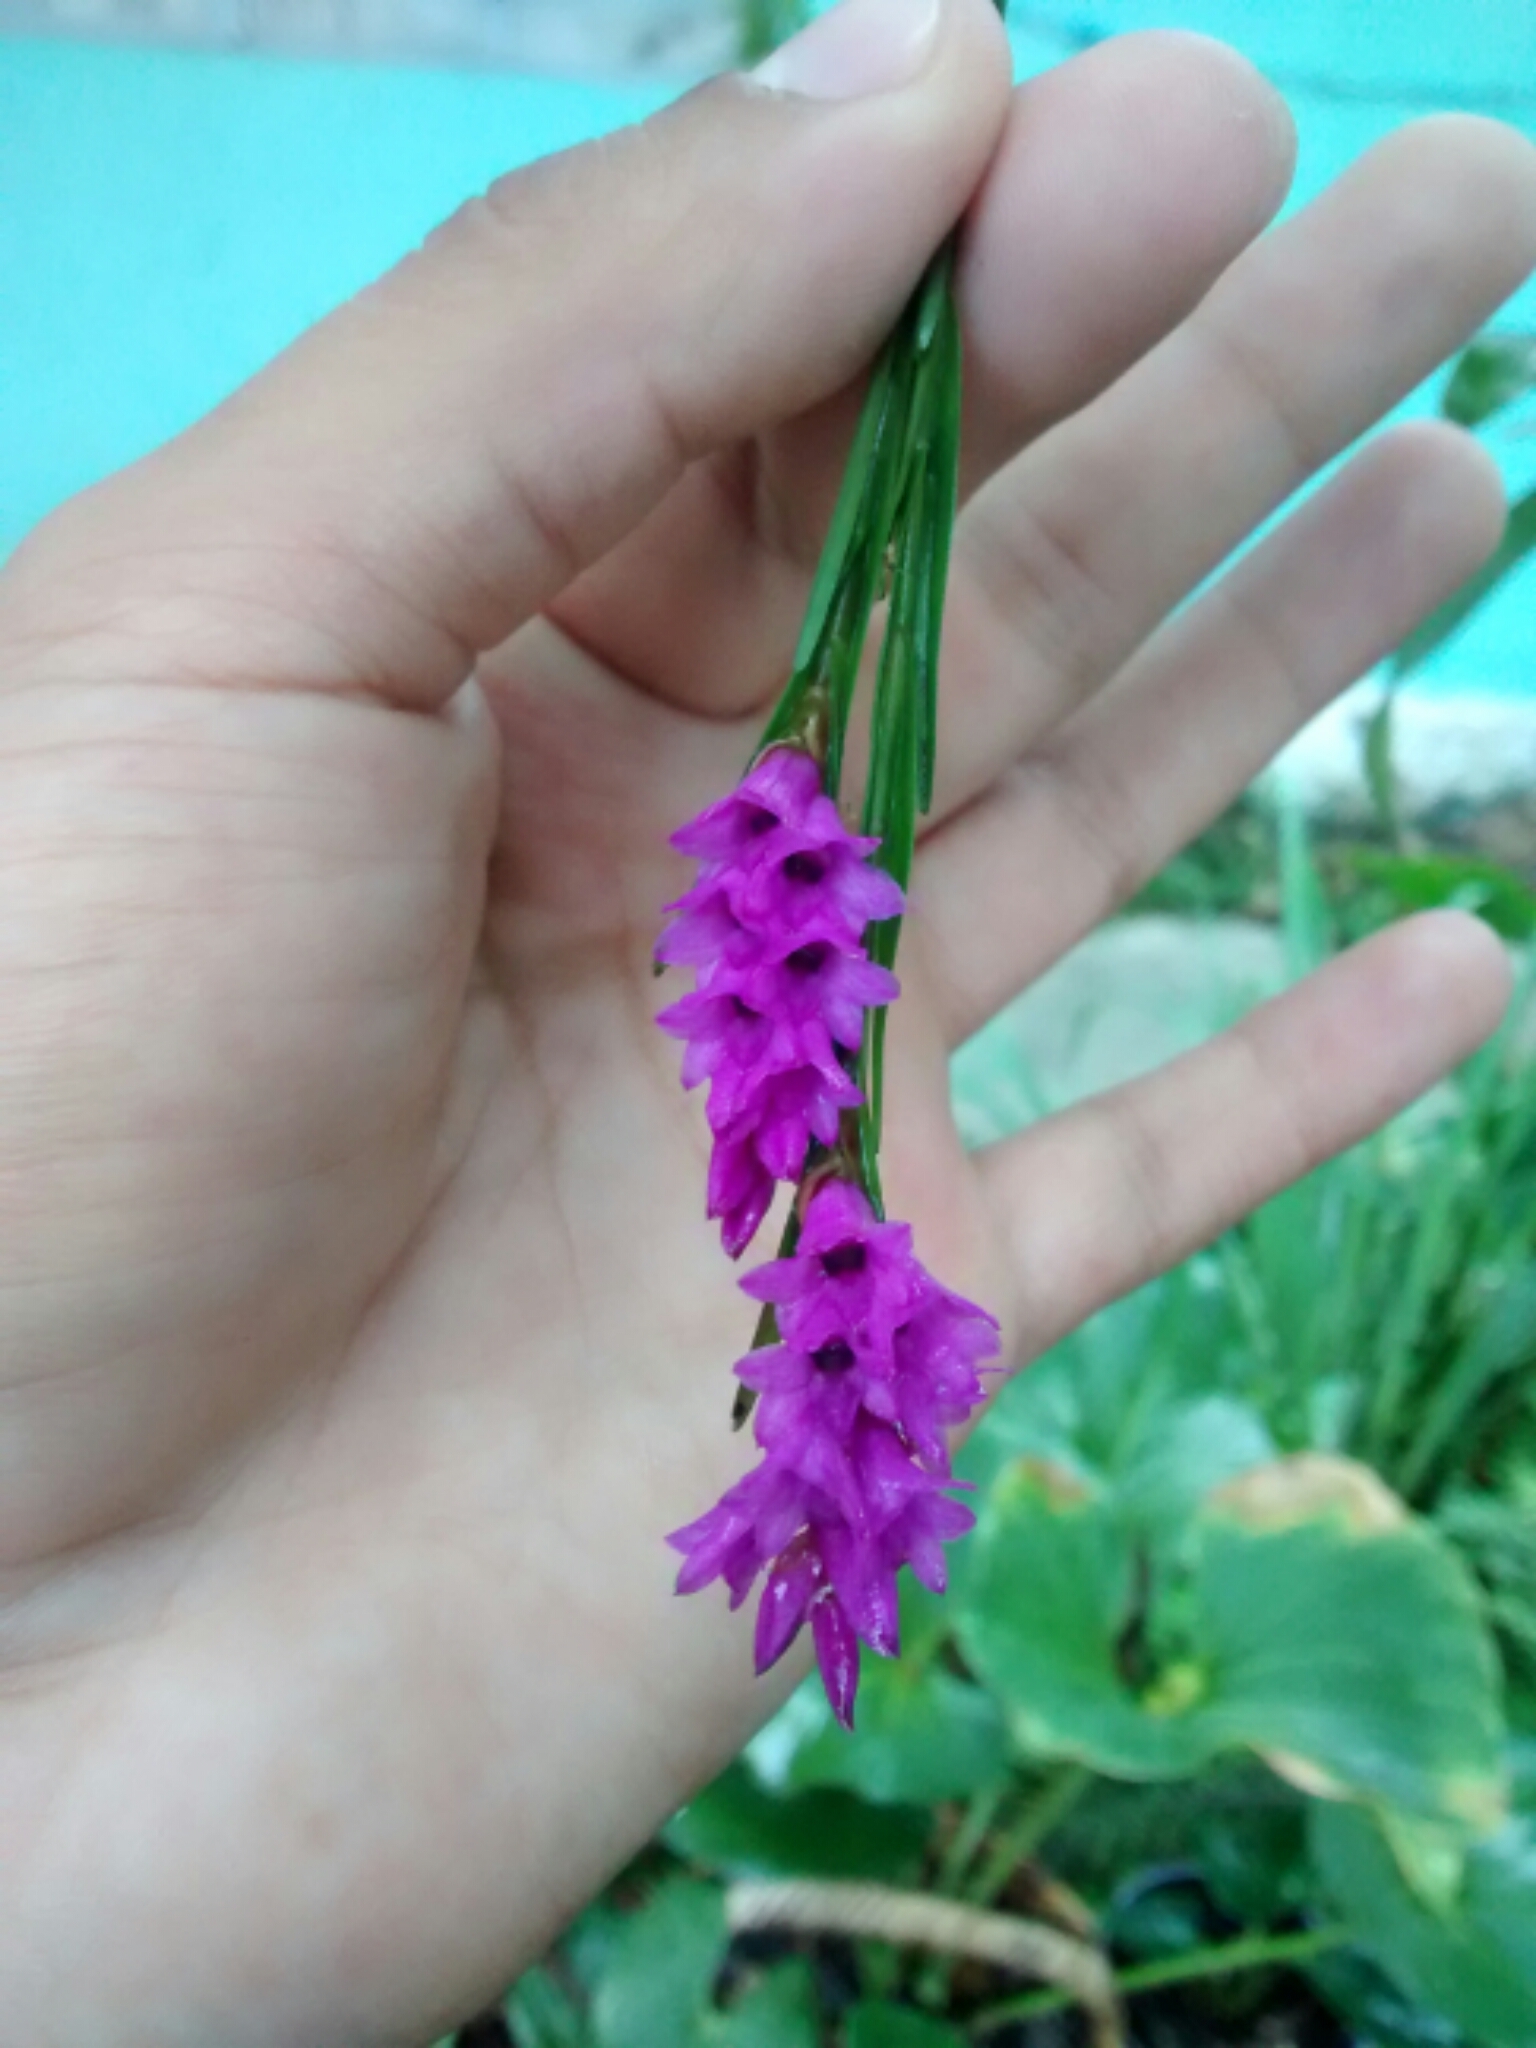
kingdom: Plantae
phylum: Tracheophyta
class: Liliopsida
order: Asparagales
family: Orchidaceae
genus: Isochilus
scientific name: Isochilus major
